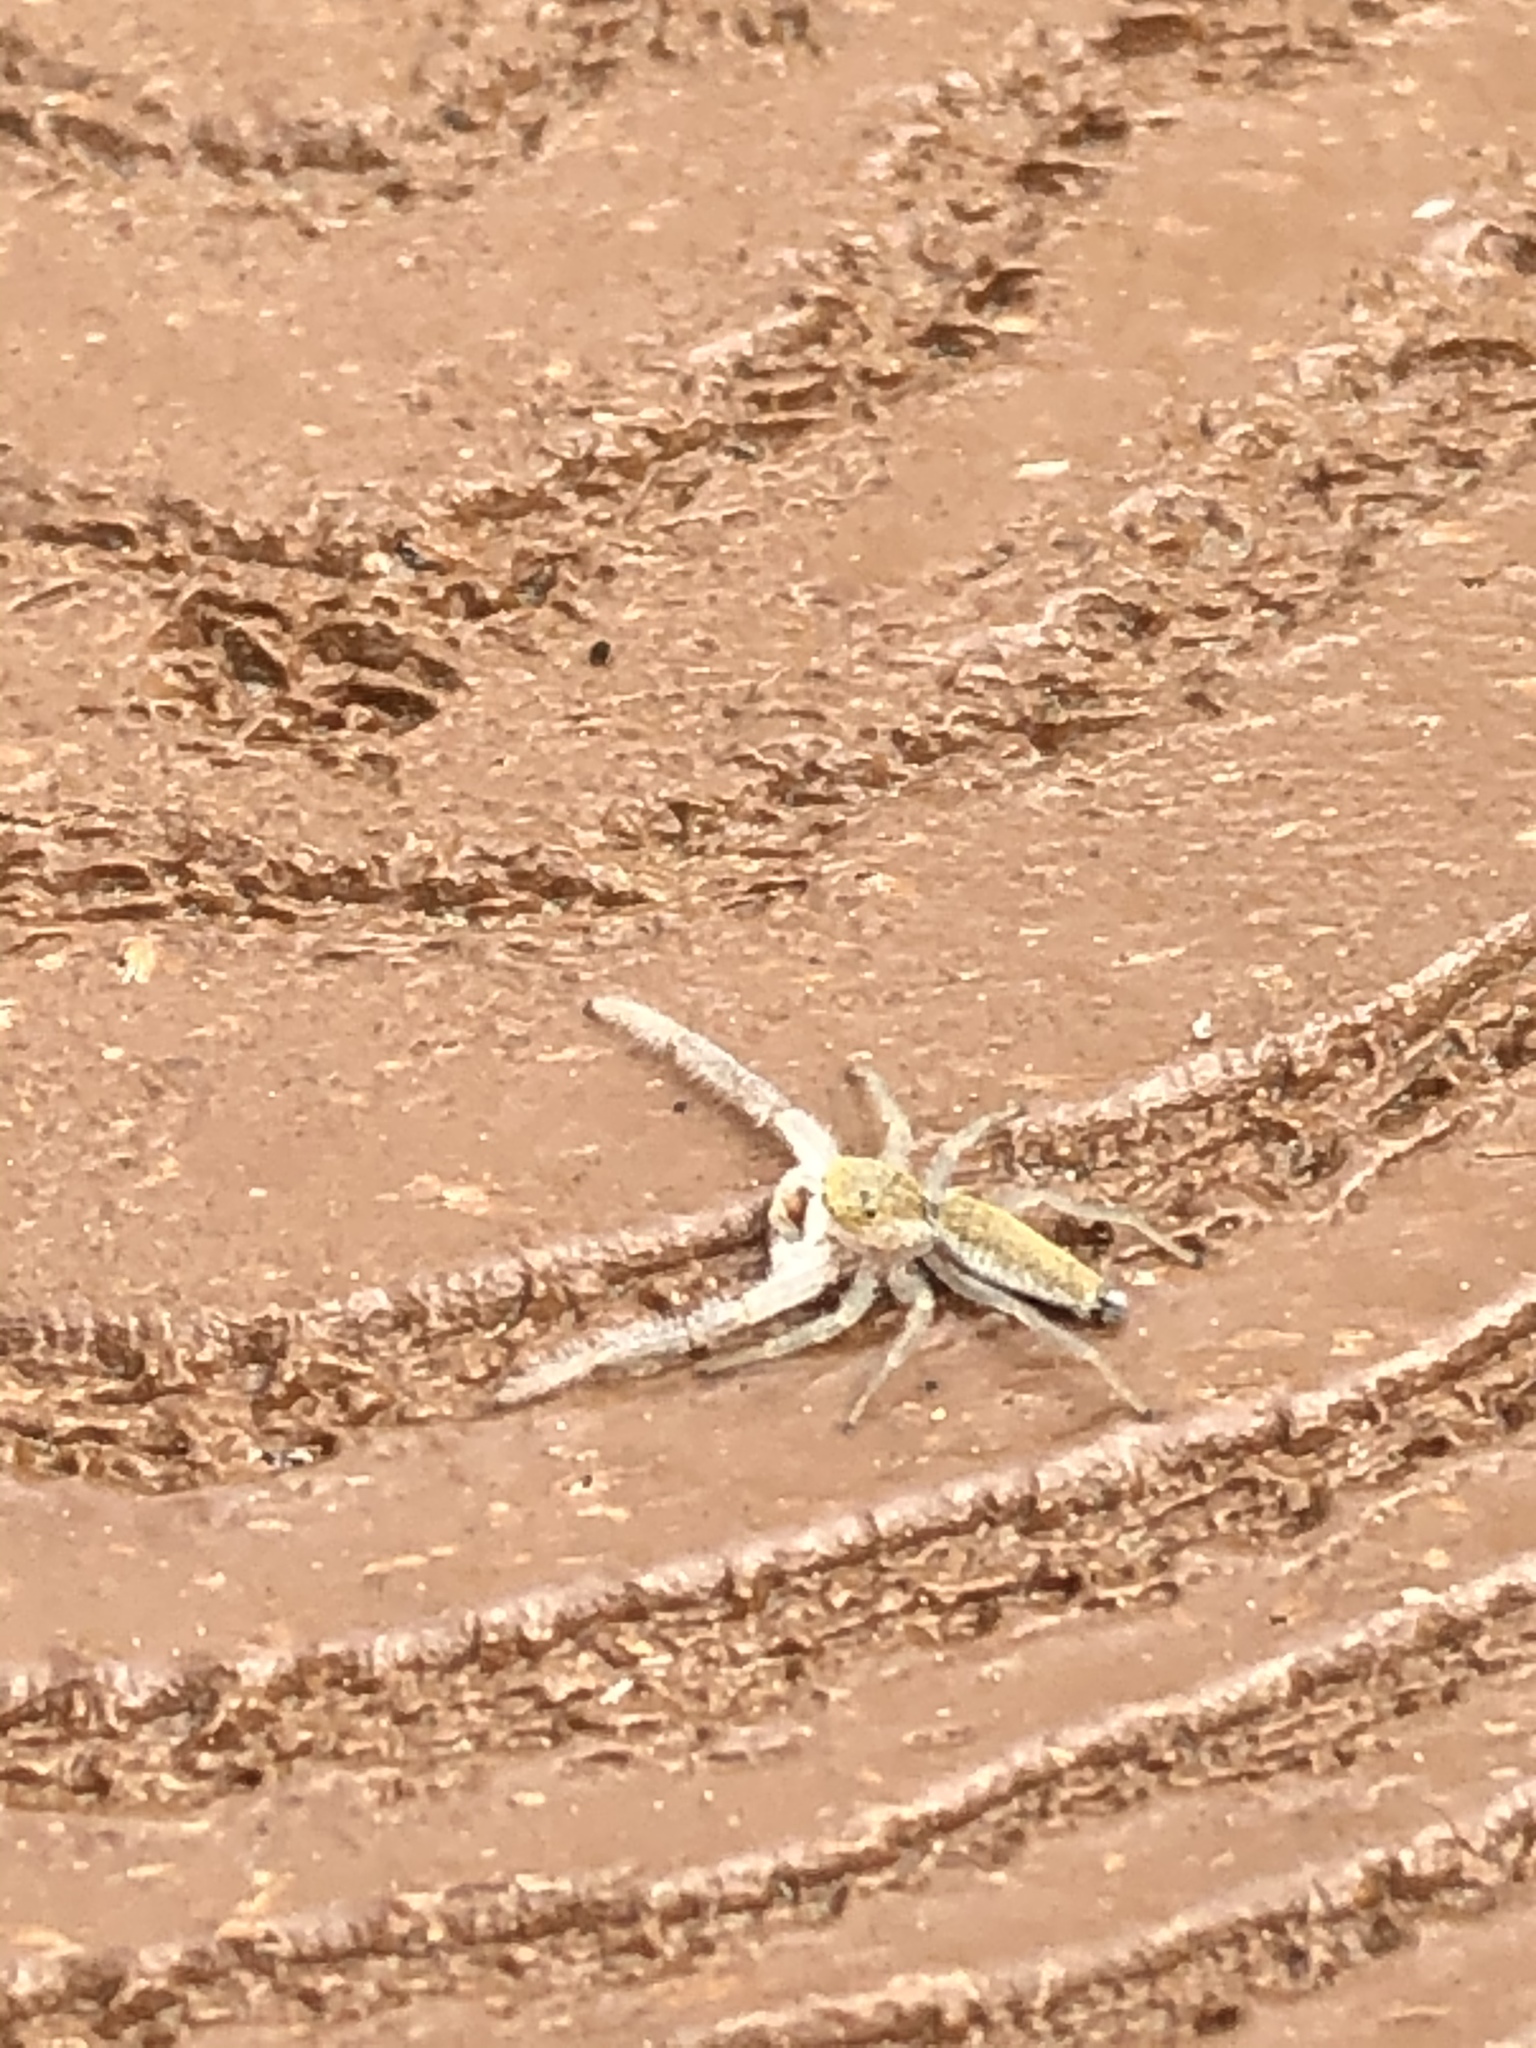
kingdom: Animalia
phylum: Arthropoda
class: Arachnida
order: Araneae
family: Salticidae
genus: Hentzia
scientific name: Hentzia mitrata
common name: White-jawed jumping spider
